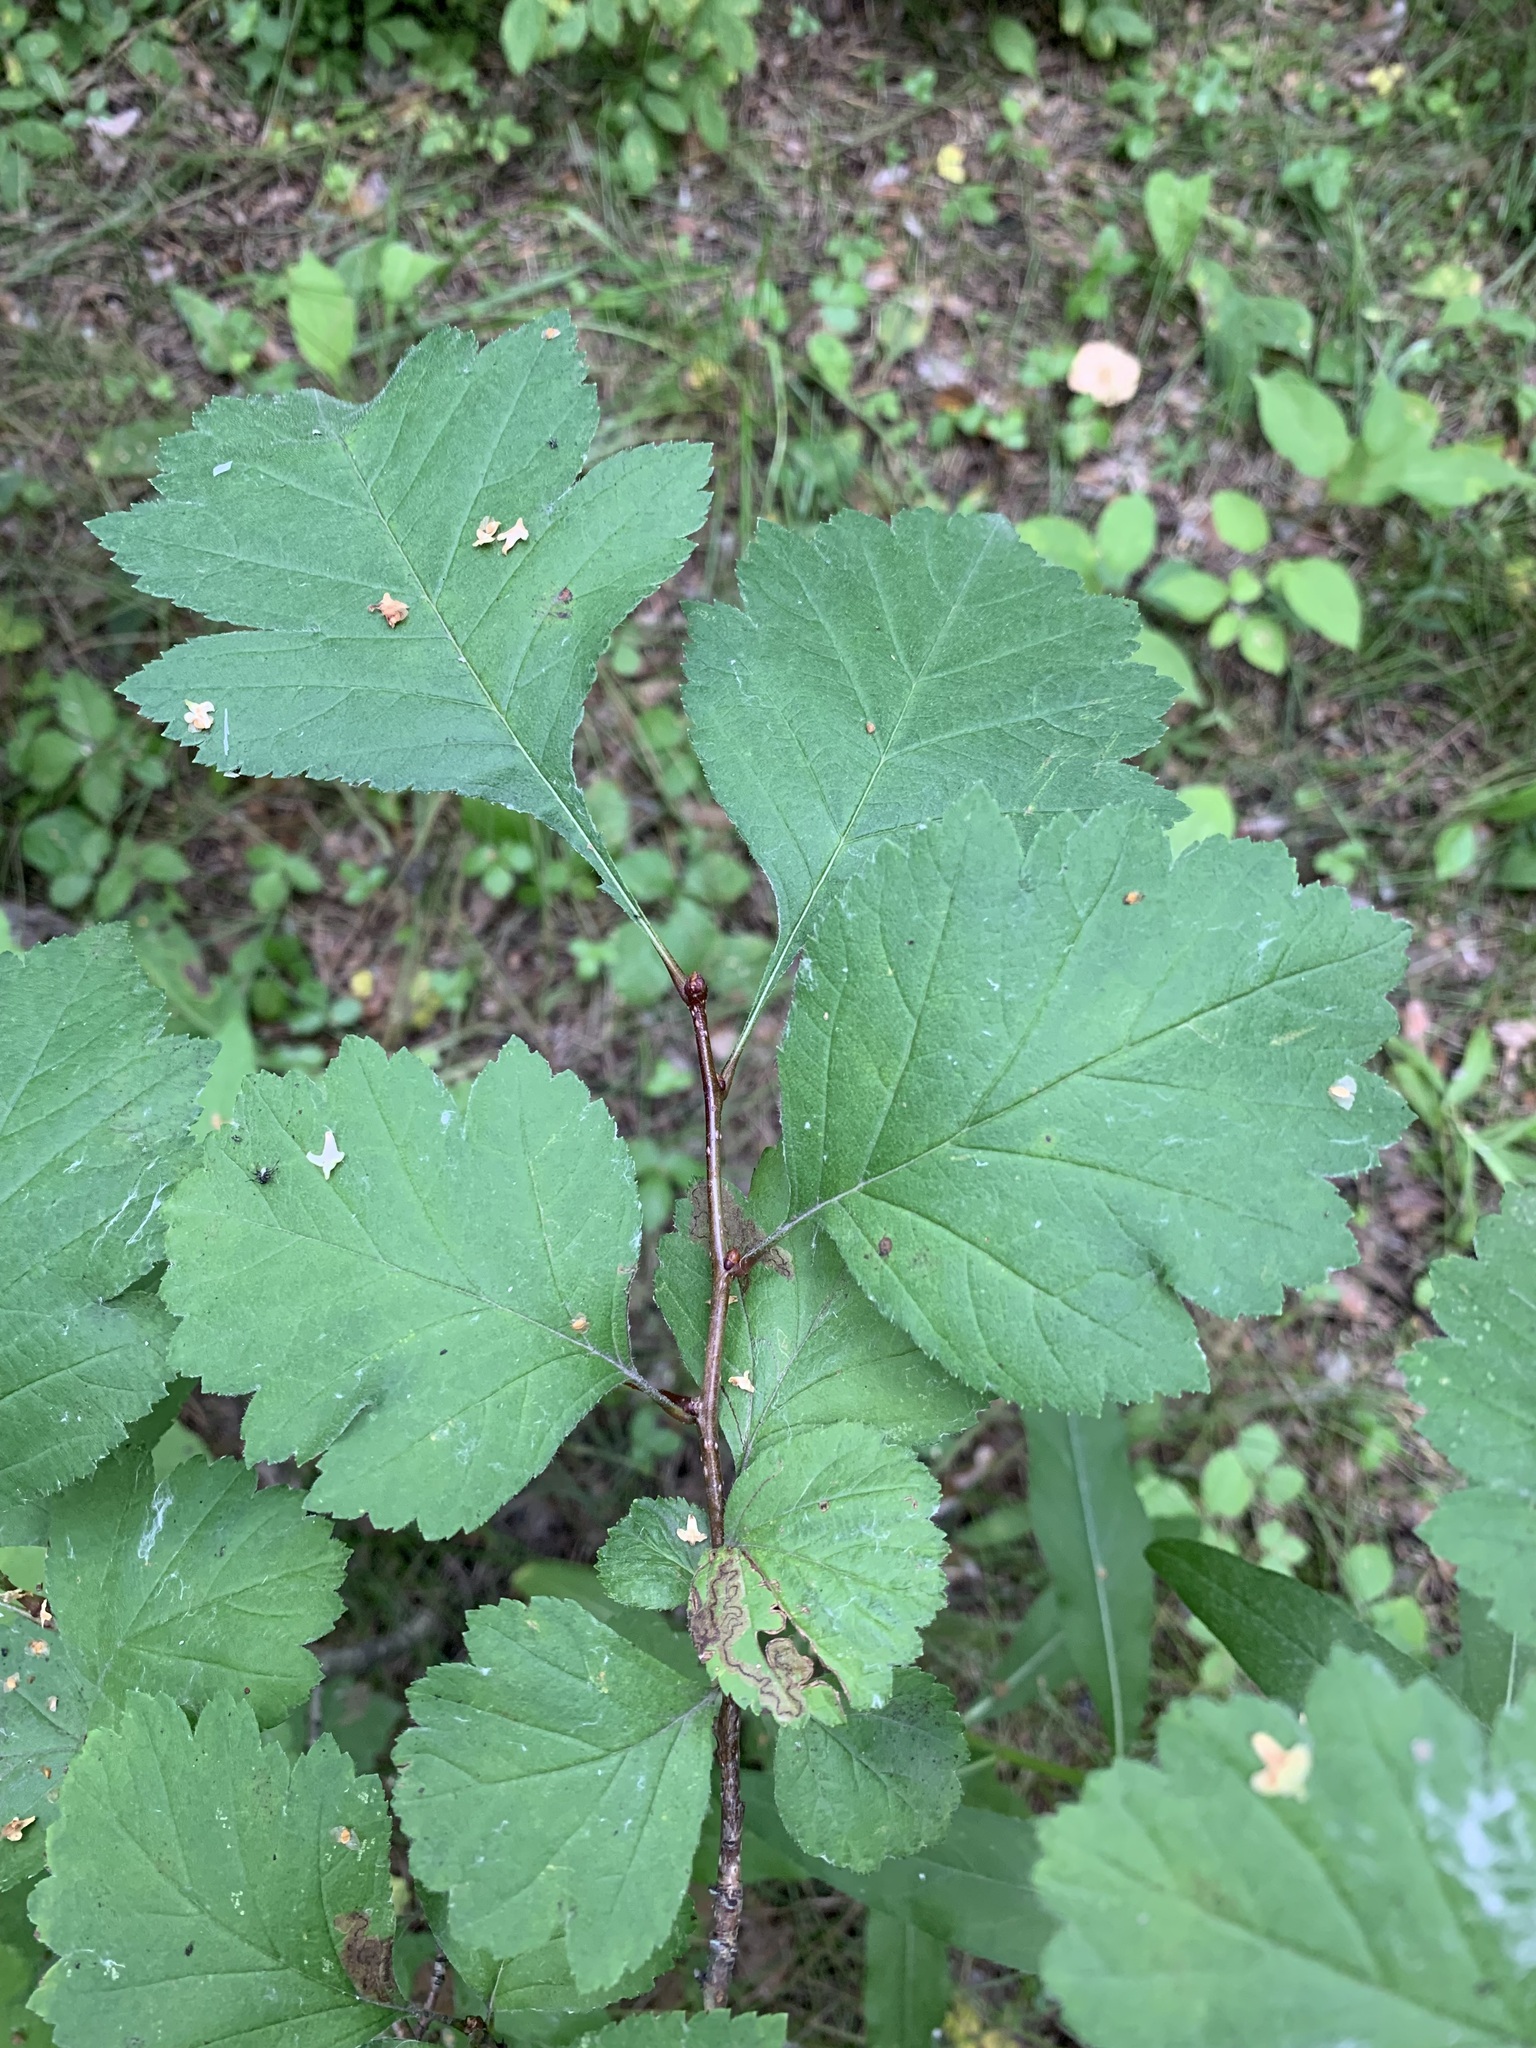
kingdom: Plantae
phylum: Tracheophyta
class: Magnoliopsida
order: Rosales
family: Rosaceae
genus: Crataegus
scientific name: Crataegus sanguinea
